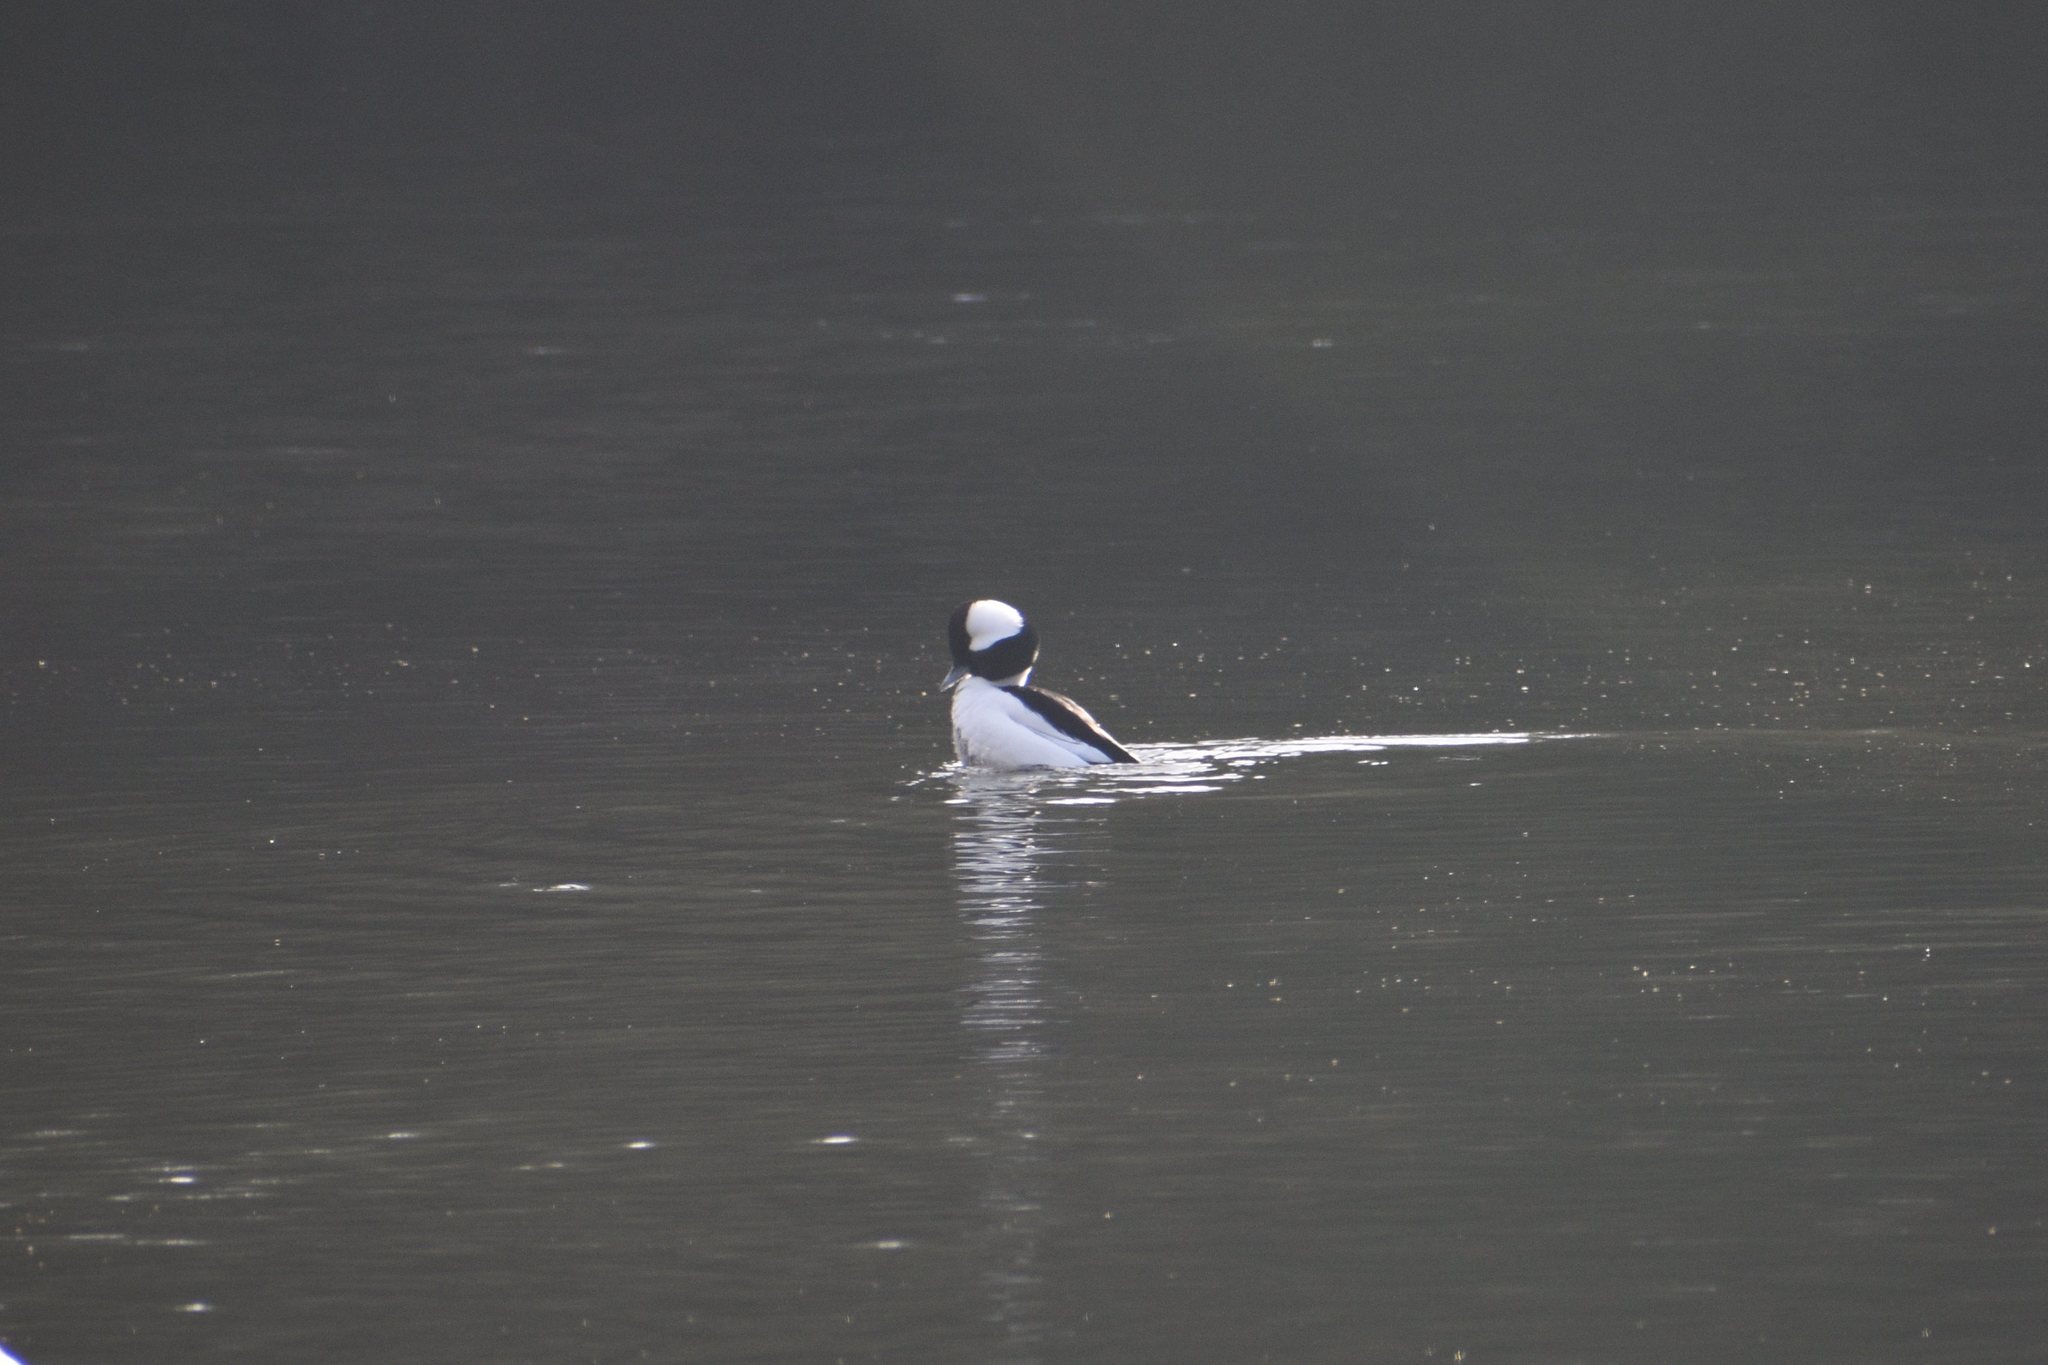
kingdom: Animalia
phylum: Chordata
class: Aves
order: Anseriformes
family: Anatidae
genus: Bucephala
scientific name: Bucephala albeola
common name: Bufflehead
